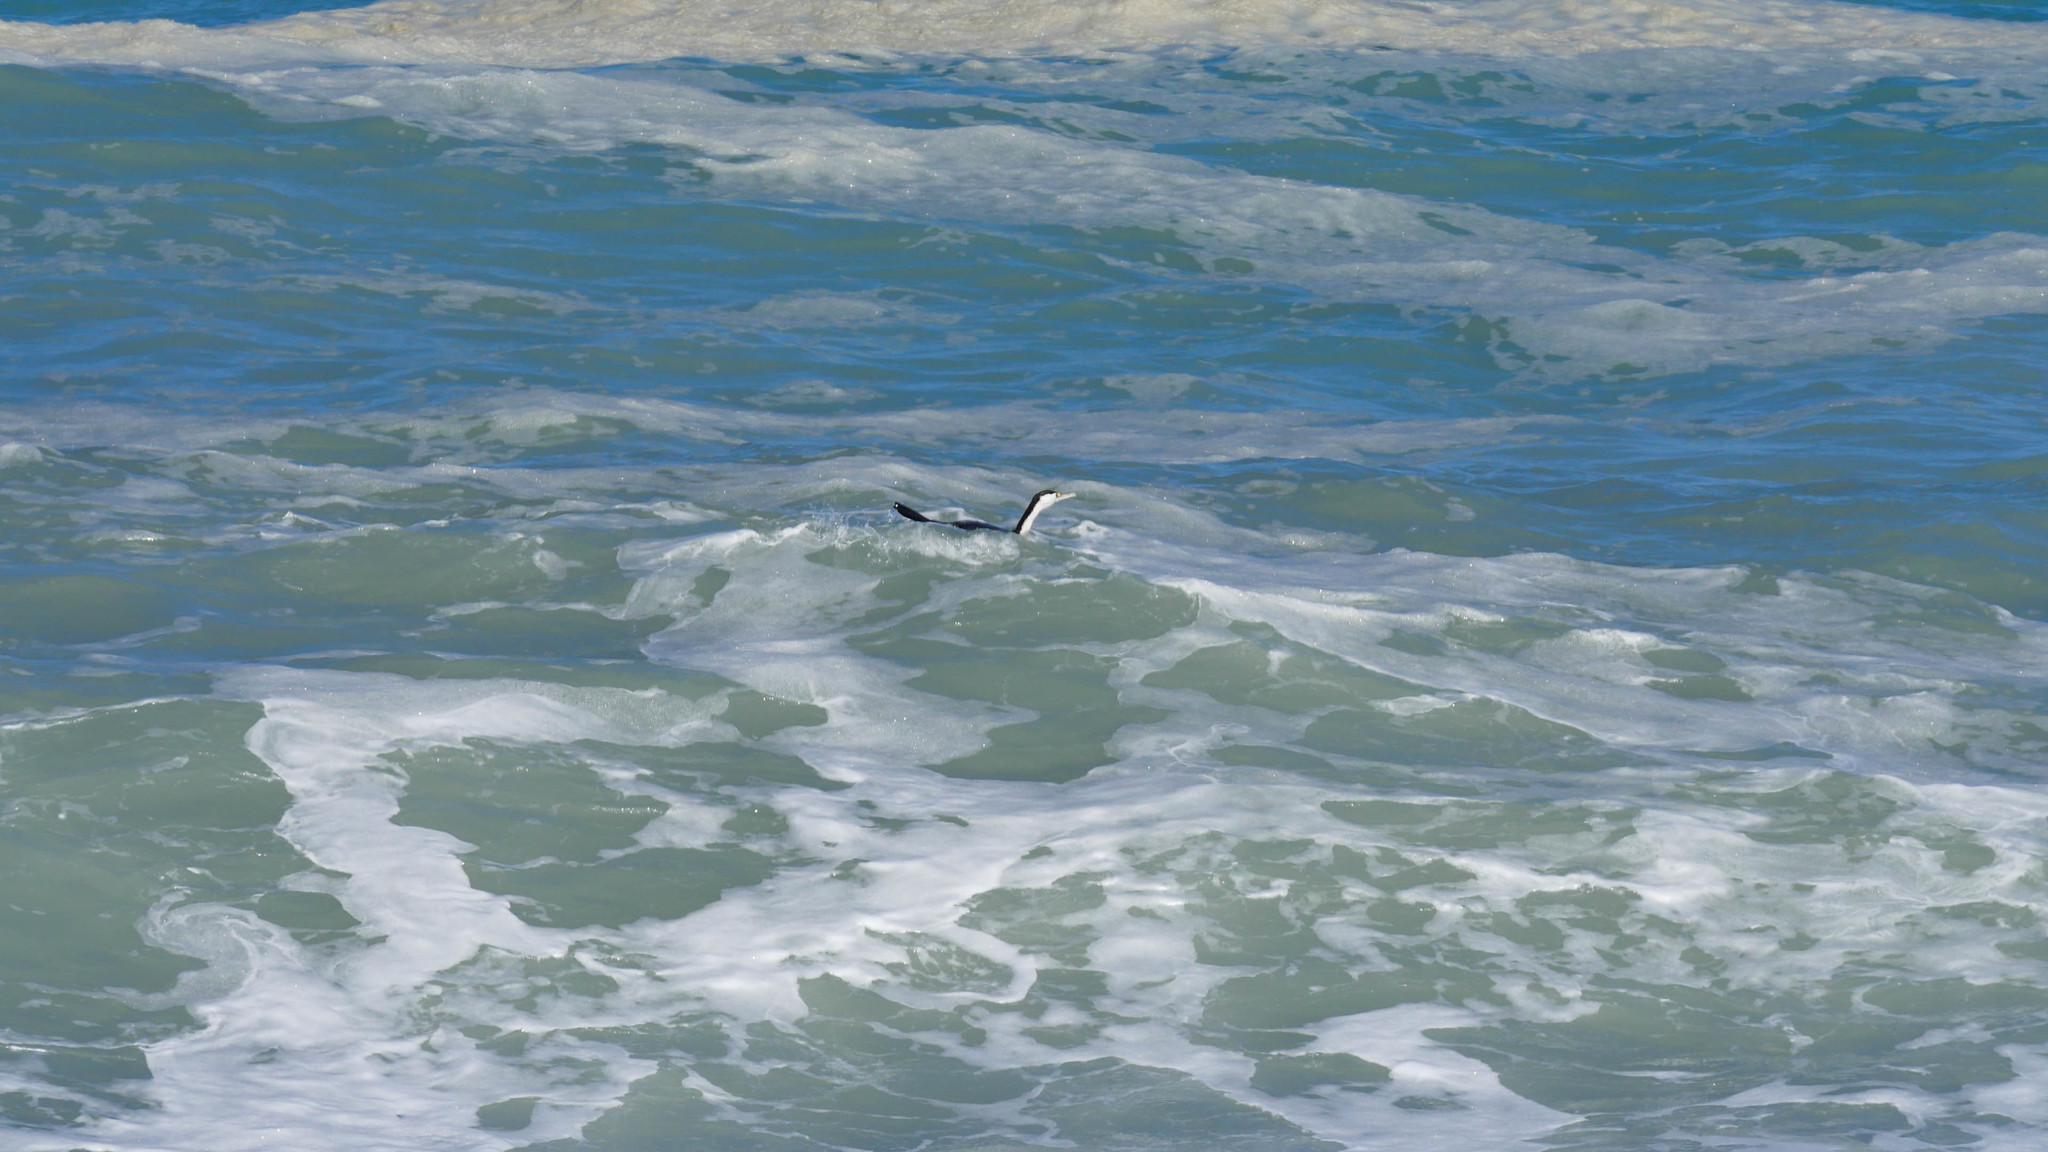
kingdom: Animalia
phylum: Chordata
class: Aves
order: Suliformes
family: Phalacrocoracidae
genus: Phalacrocorax
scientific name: Phalacrocorax varius
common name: Pied cormorant
